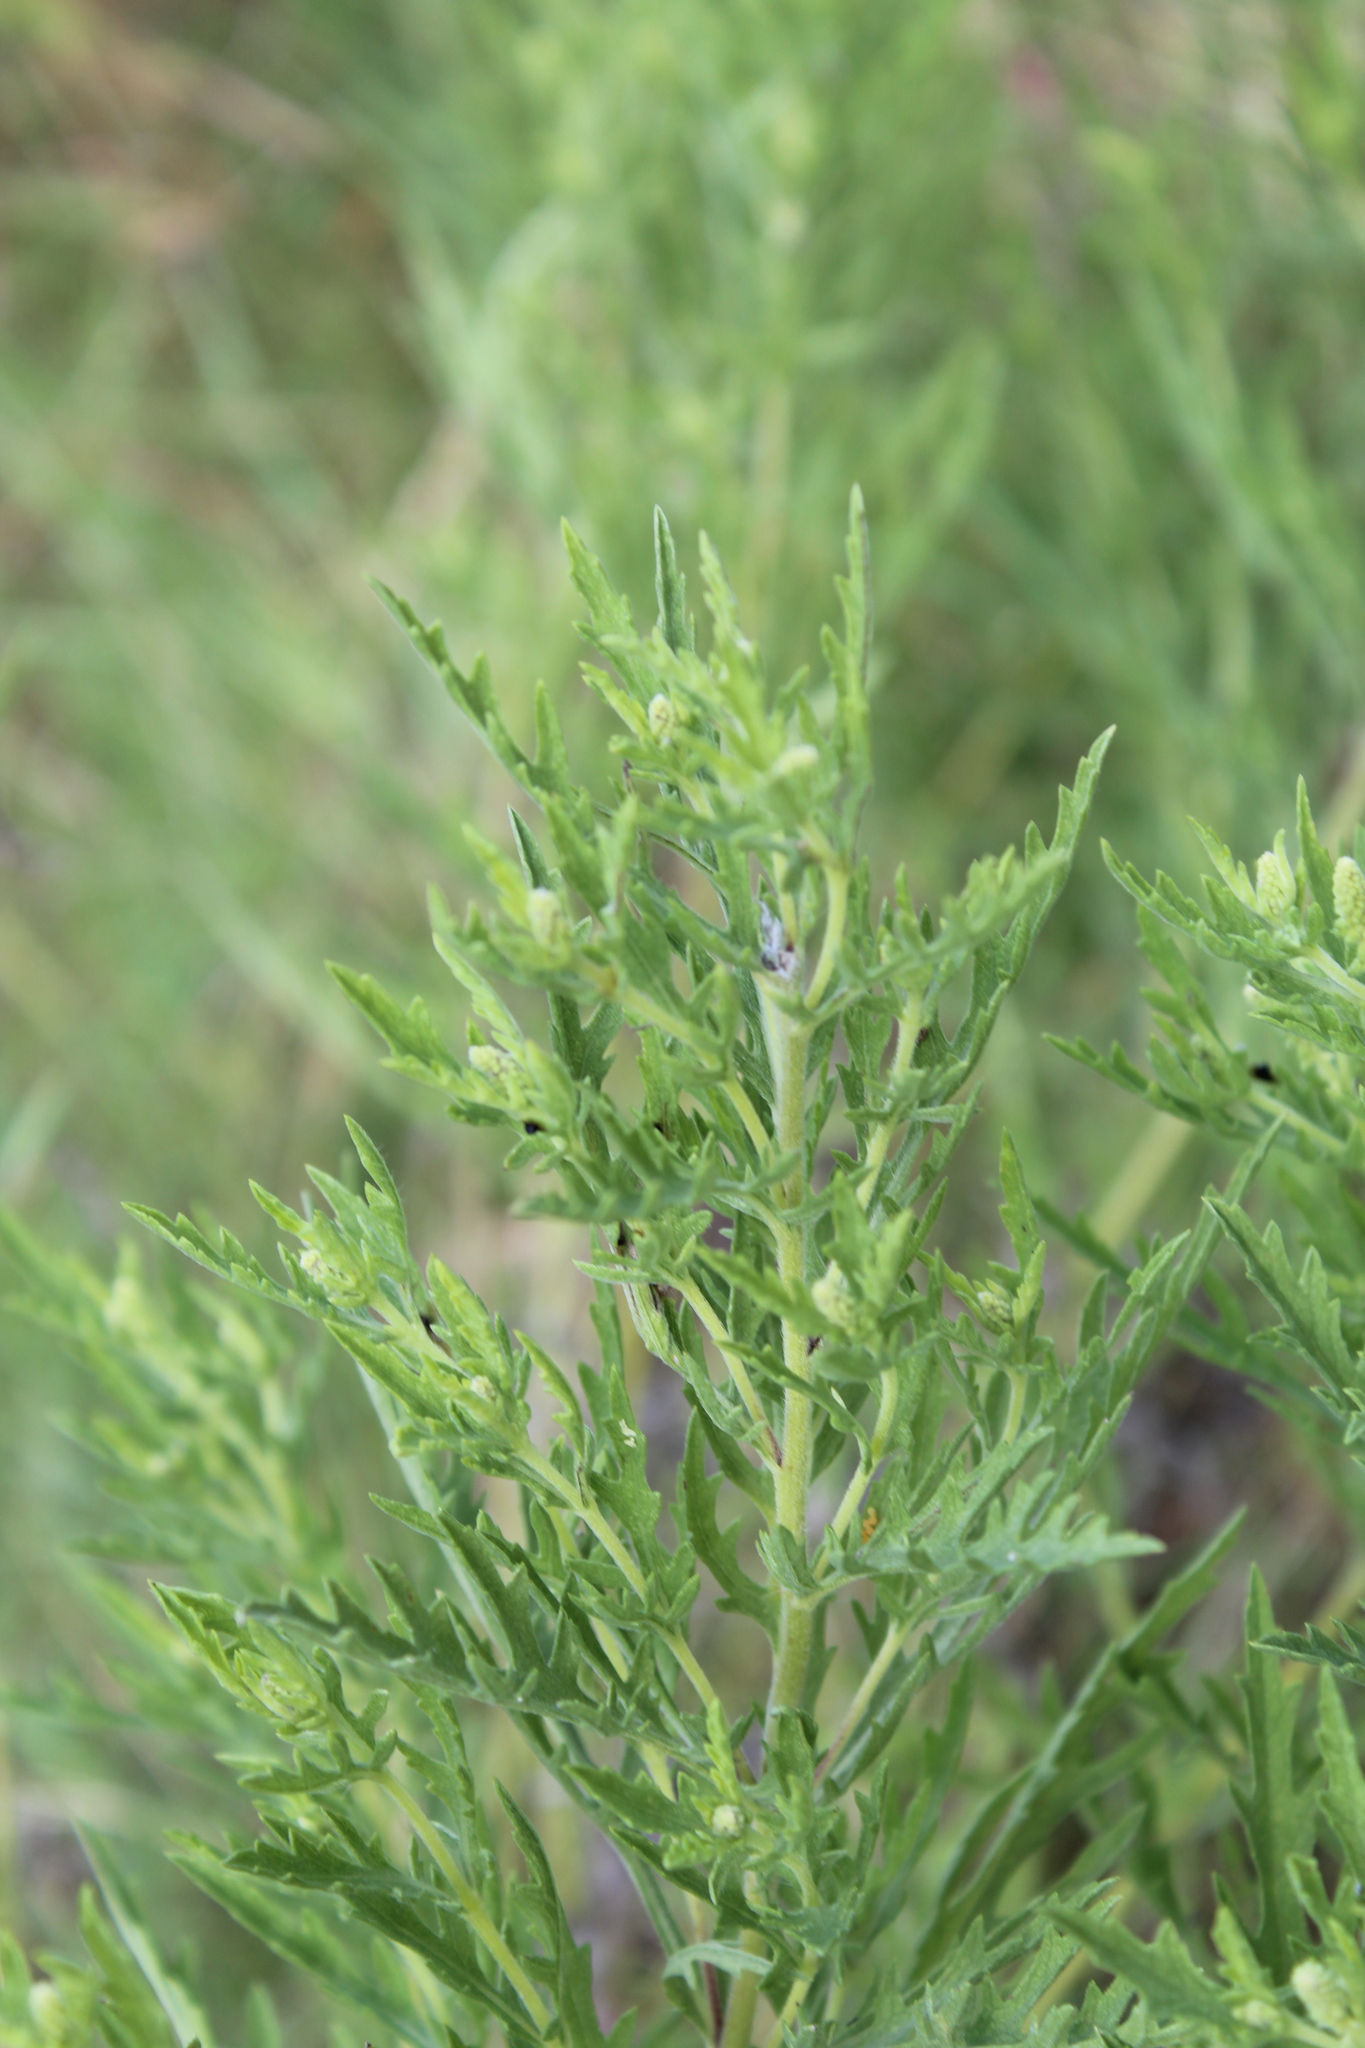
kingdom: Plantae
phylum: Tracheophyta
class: Magnoliopsida
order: Asterales
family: Asteraceae
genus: Ambrosia
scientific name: Ambrosia psilostachya
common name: Perennial ragweed
